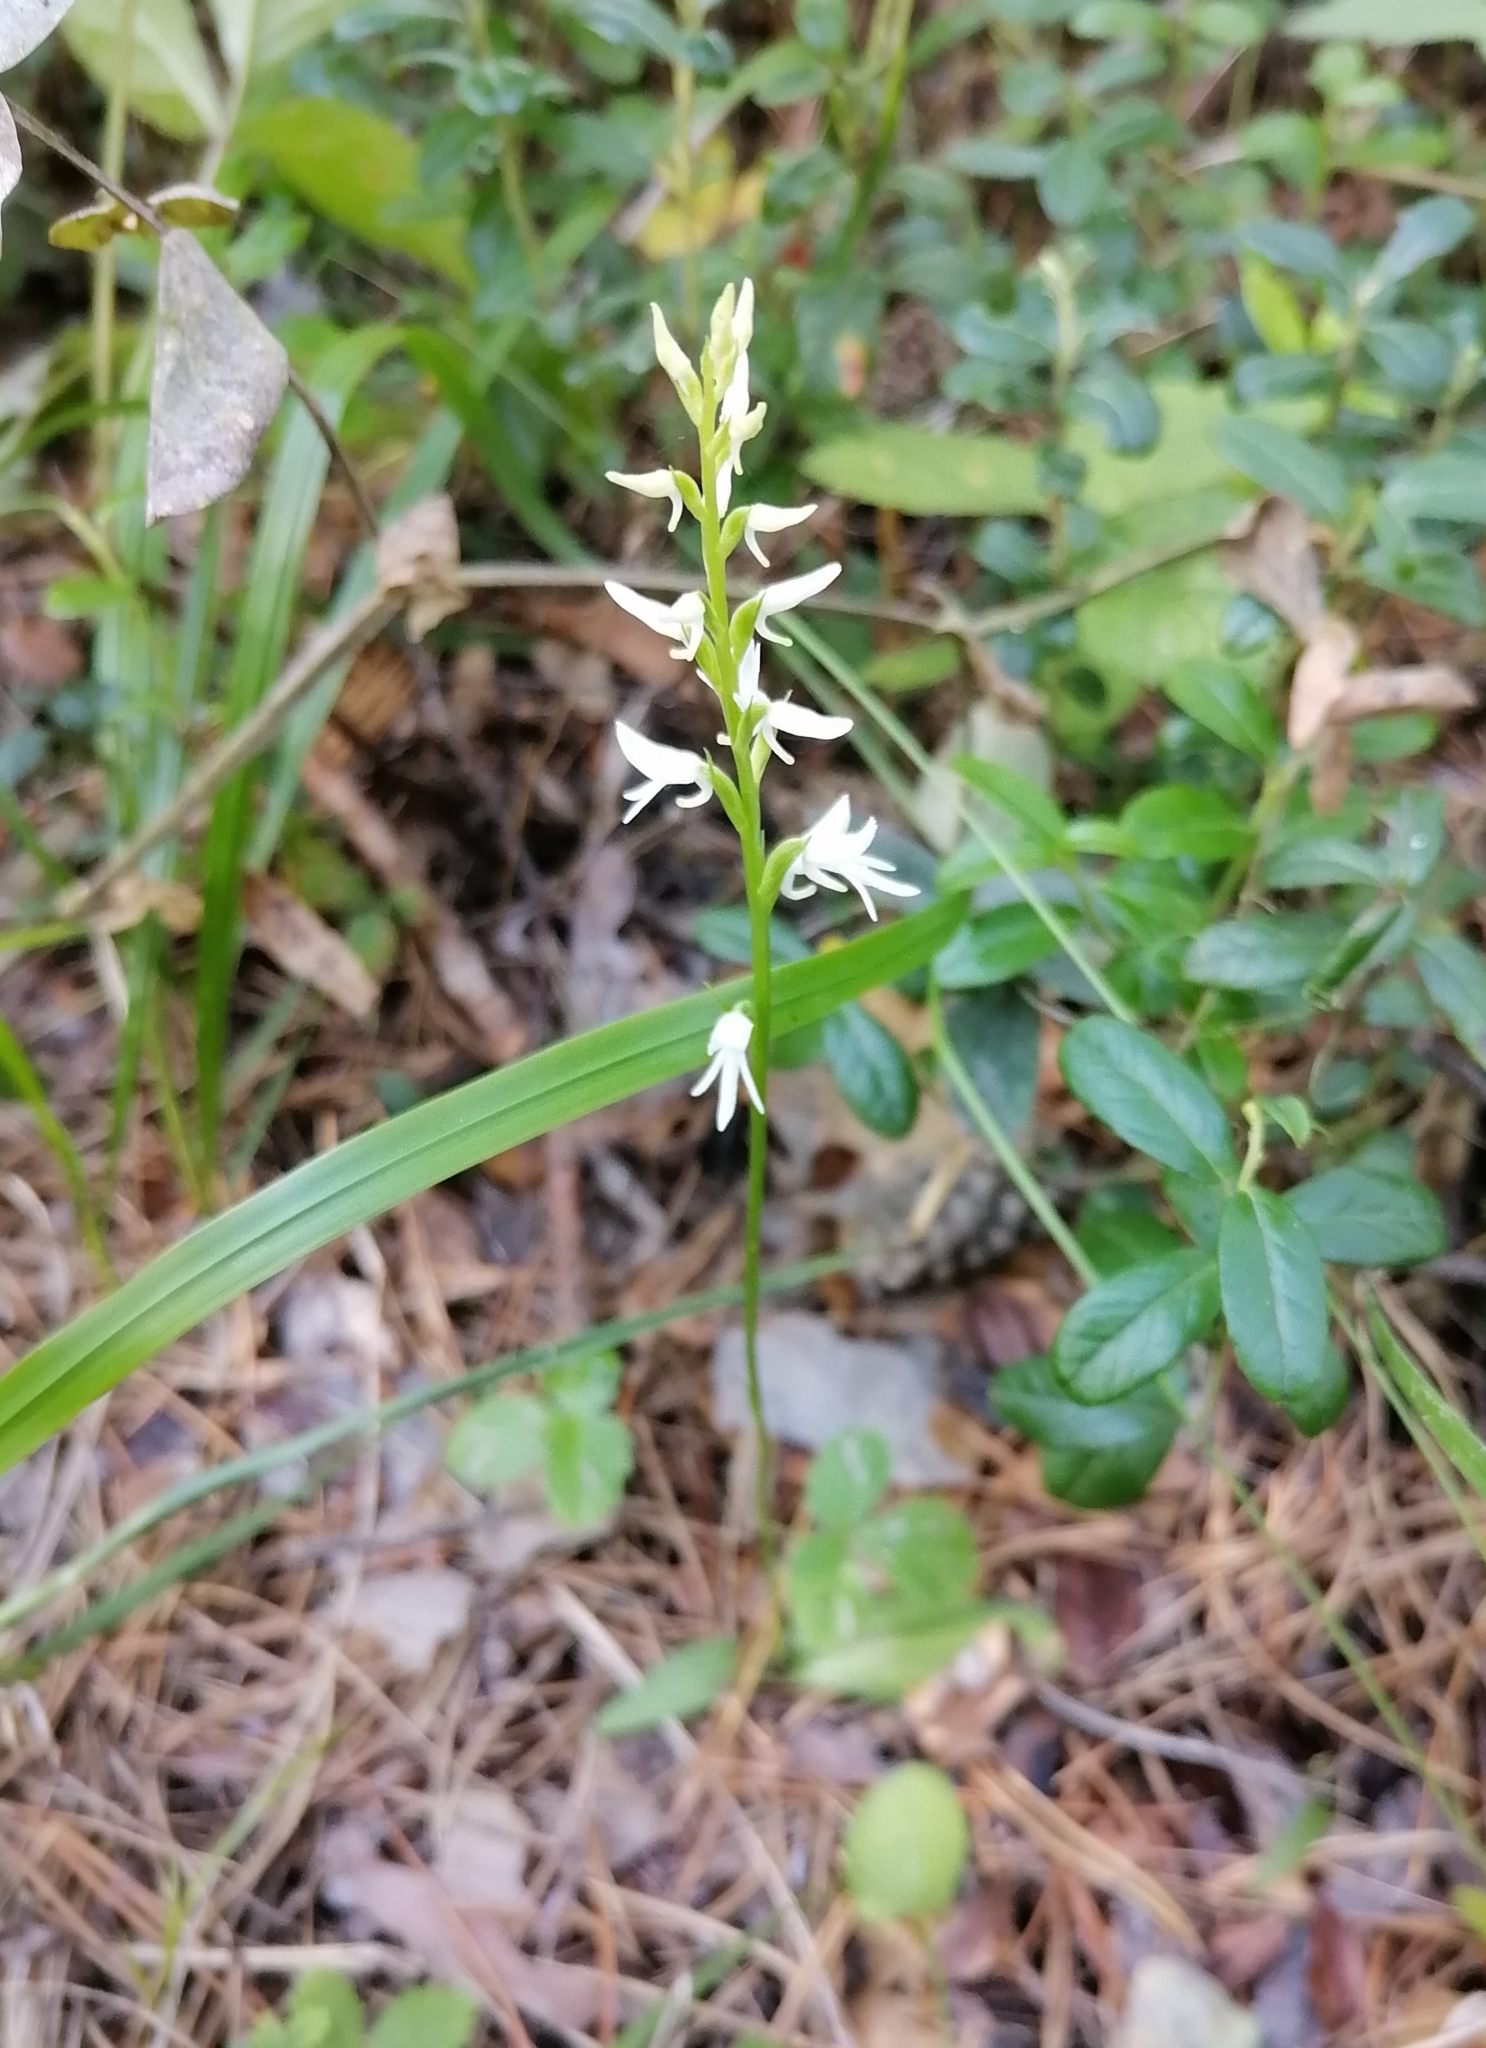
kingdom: Plantae
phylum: Tracheophyta
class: Liliopsida
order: Asparagales
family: Orchidaceae
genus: Hemipilia
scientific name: Hemipilia cucullata
